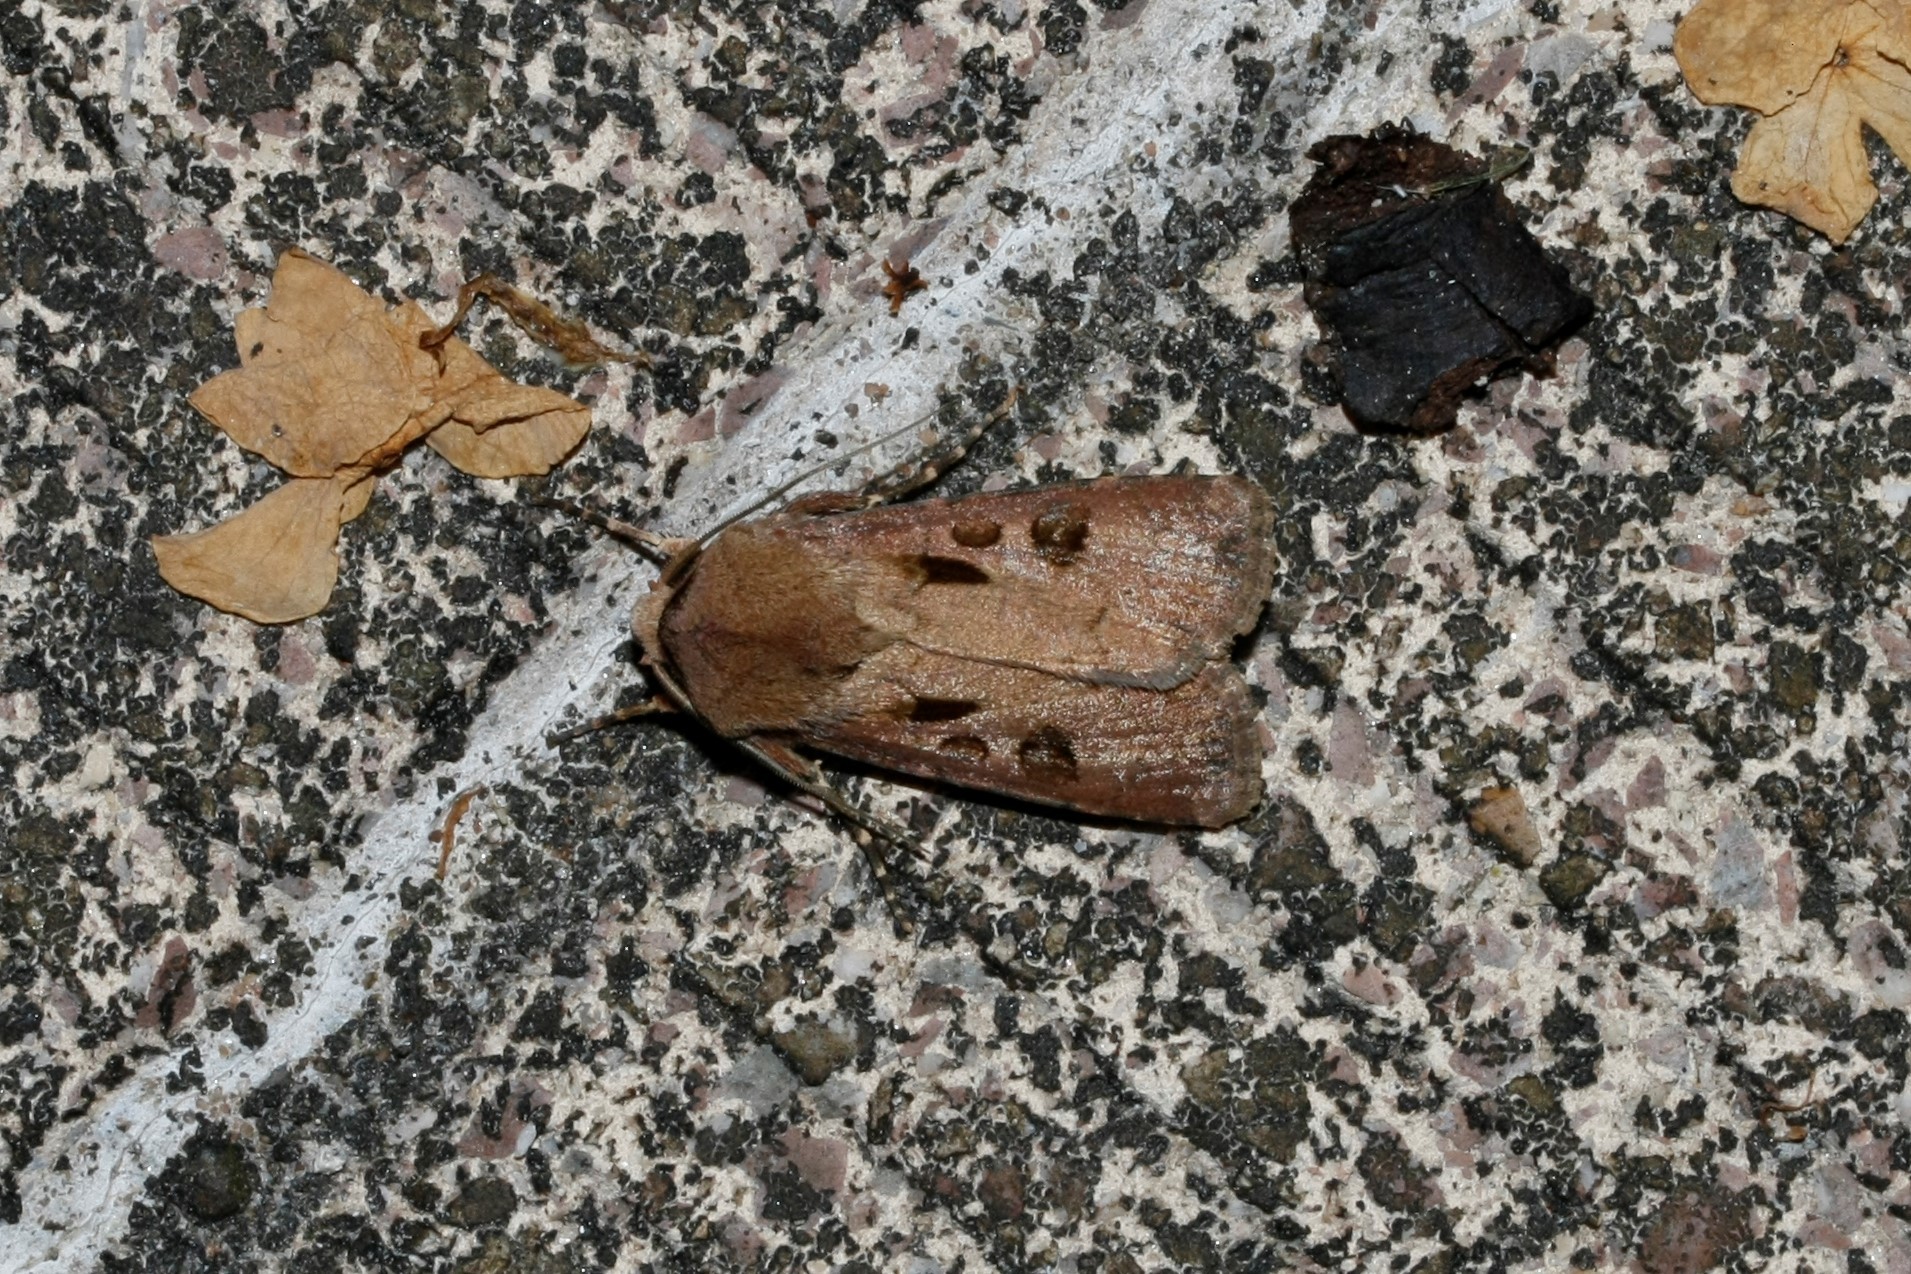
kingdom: Animalia
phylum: Arthropoda
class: Insecta
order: Lepidoptera
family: Noctuidae
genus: Agrotis
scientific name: Agrotis exclamationis
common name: Heart and dart
